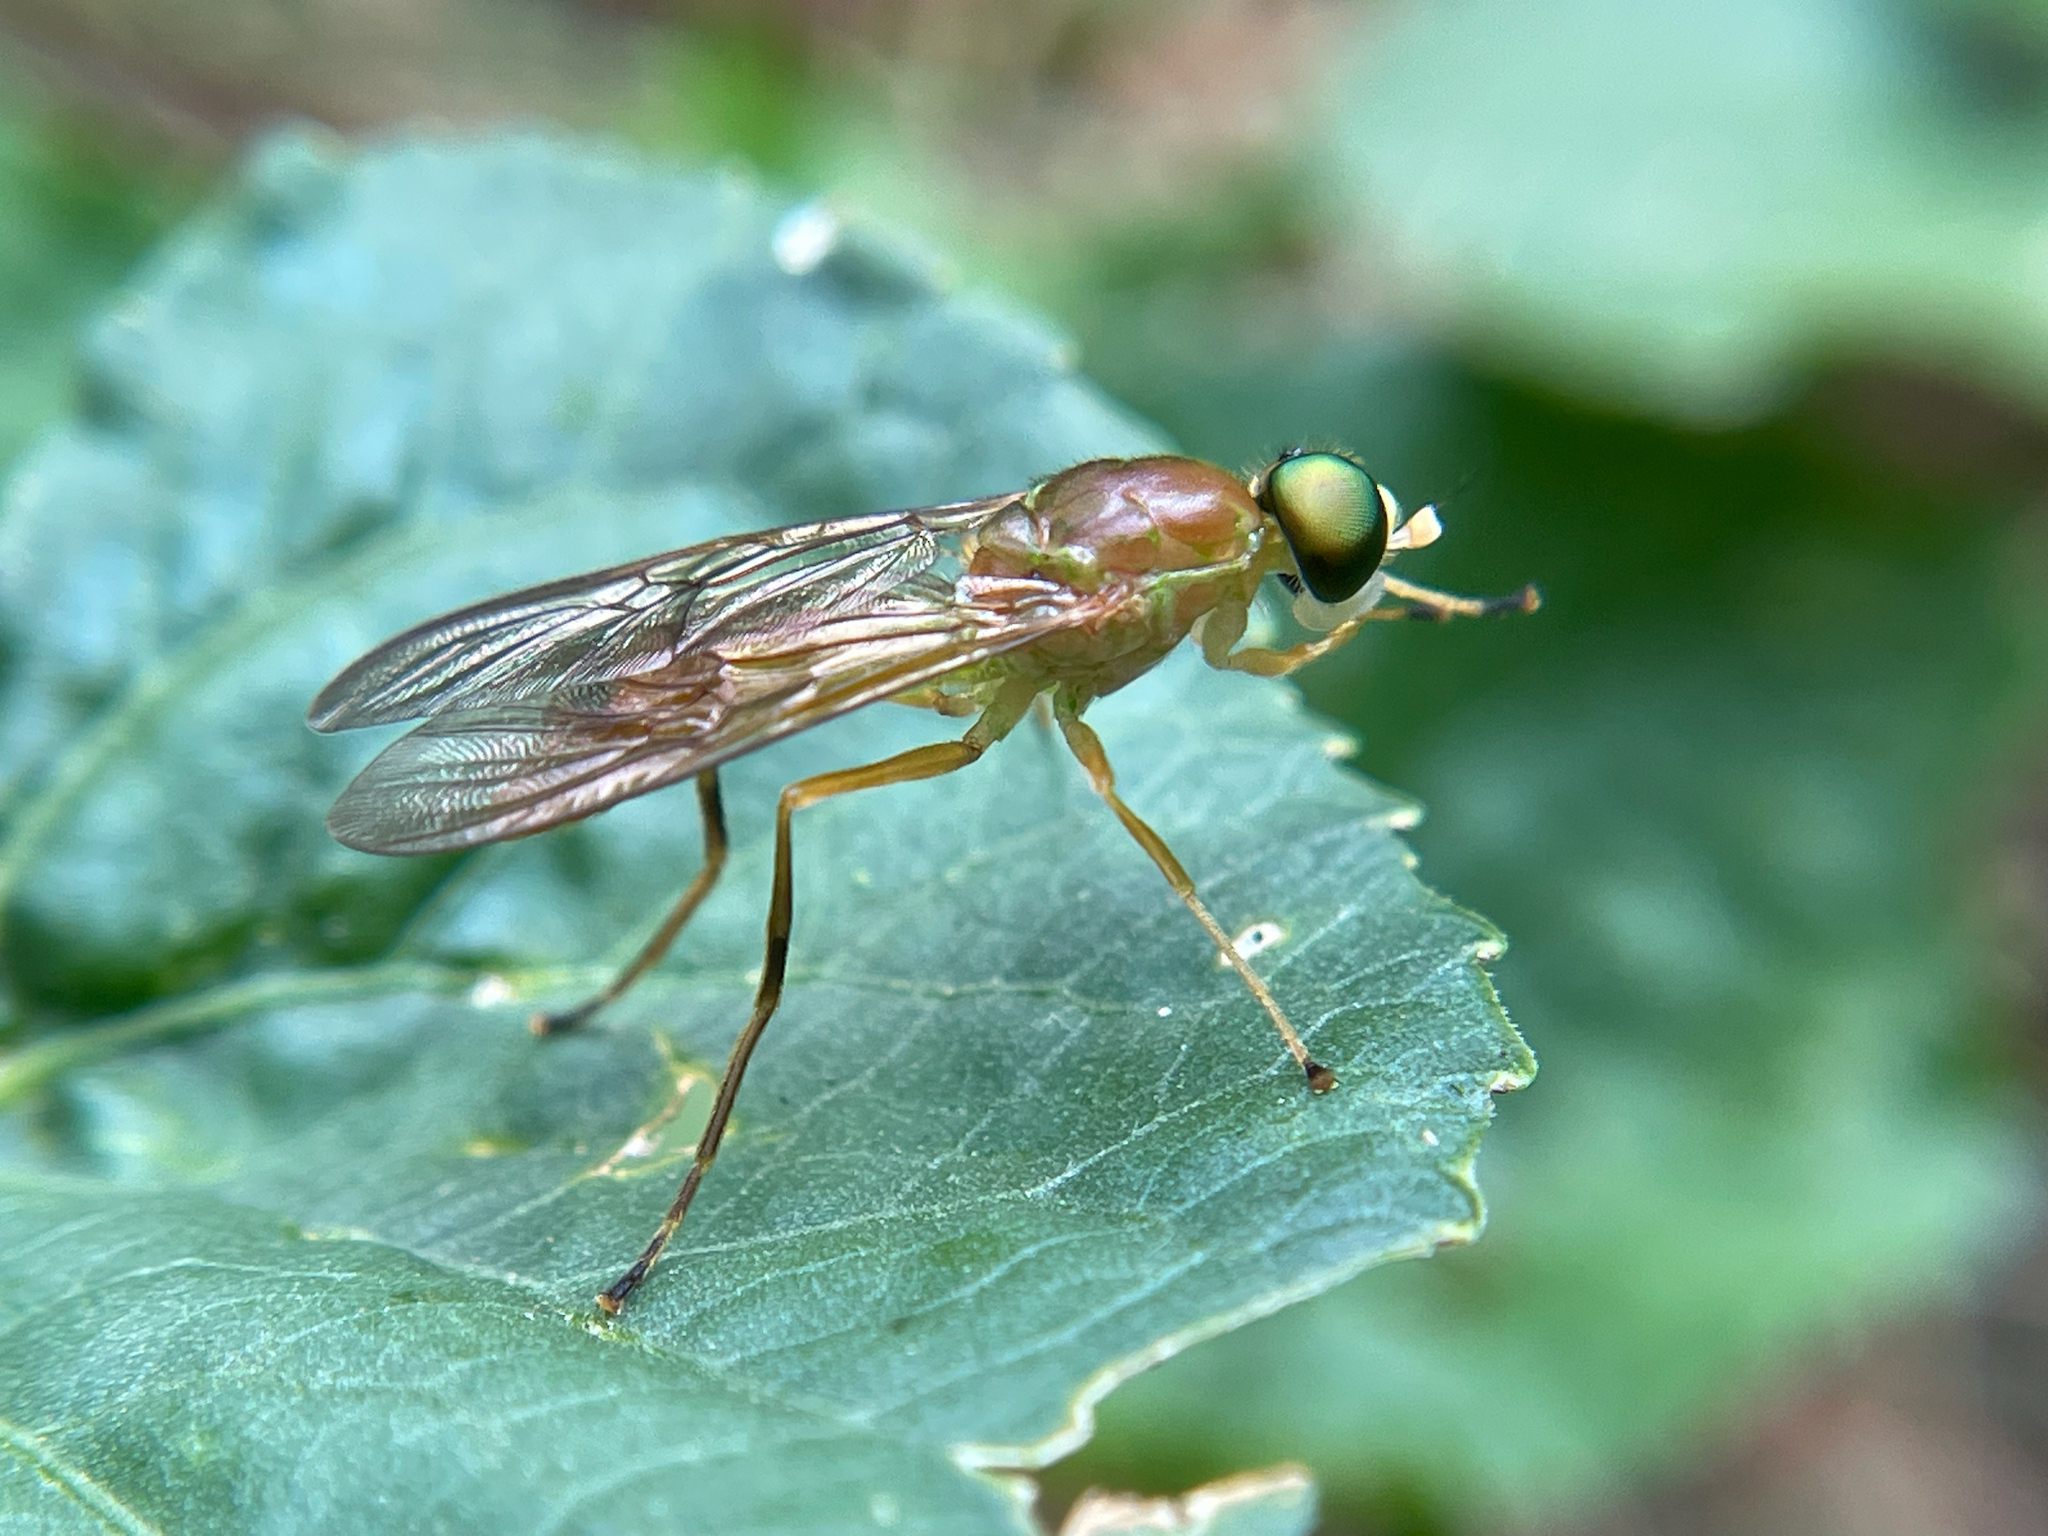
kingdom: Animalia
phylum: Arthropoda
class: Insecta
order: Diptera
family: Stratiomyidae
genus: Ptecticus
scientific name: Ptecticus trivittatus
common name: Compost fly
